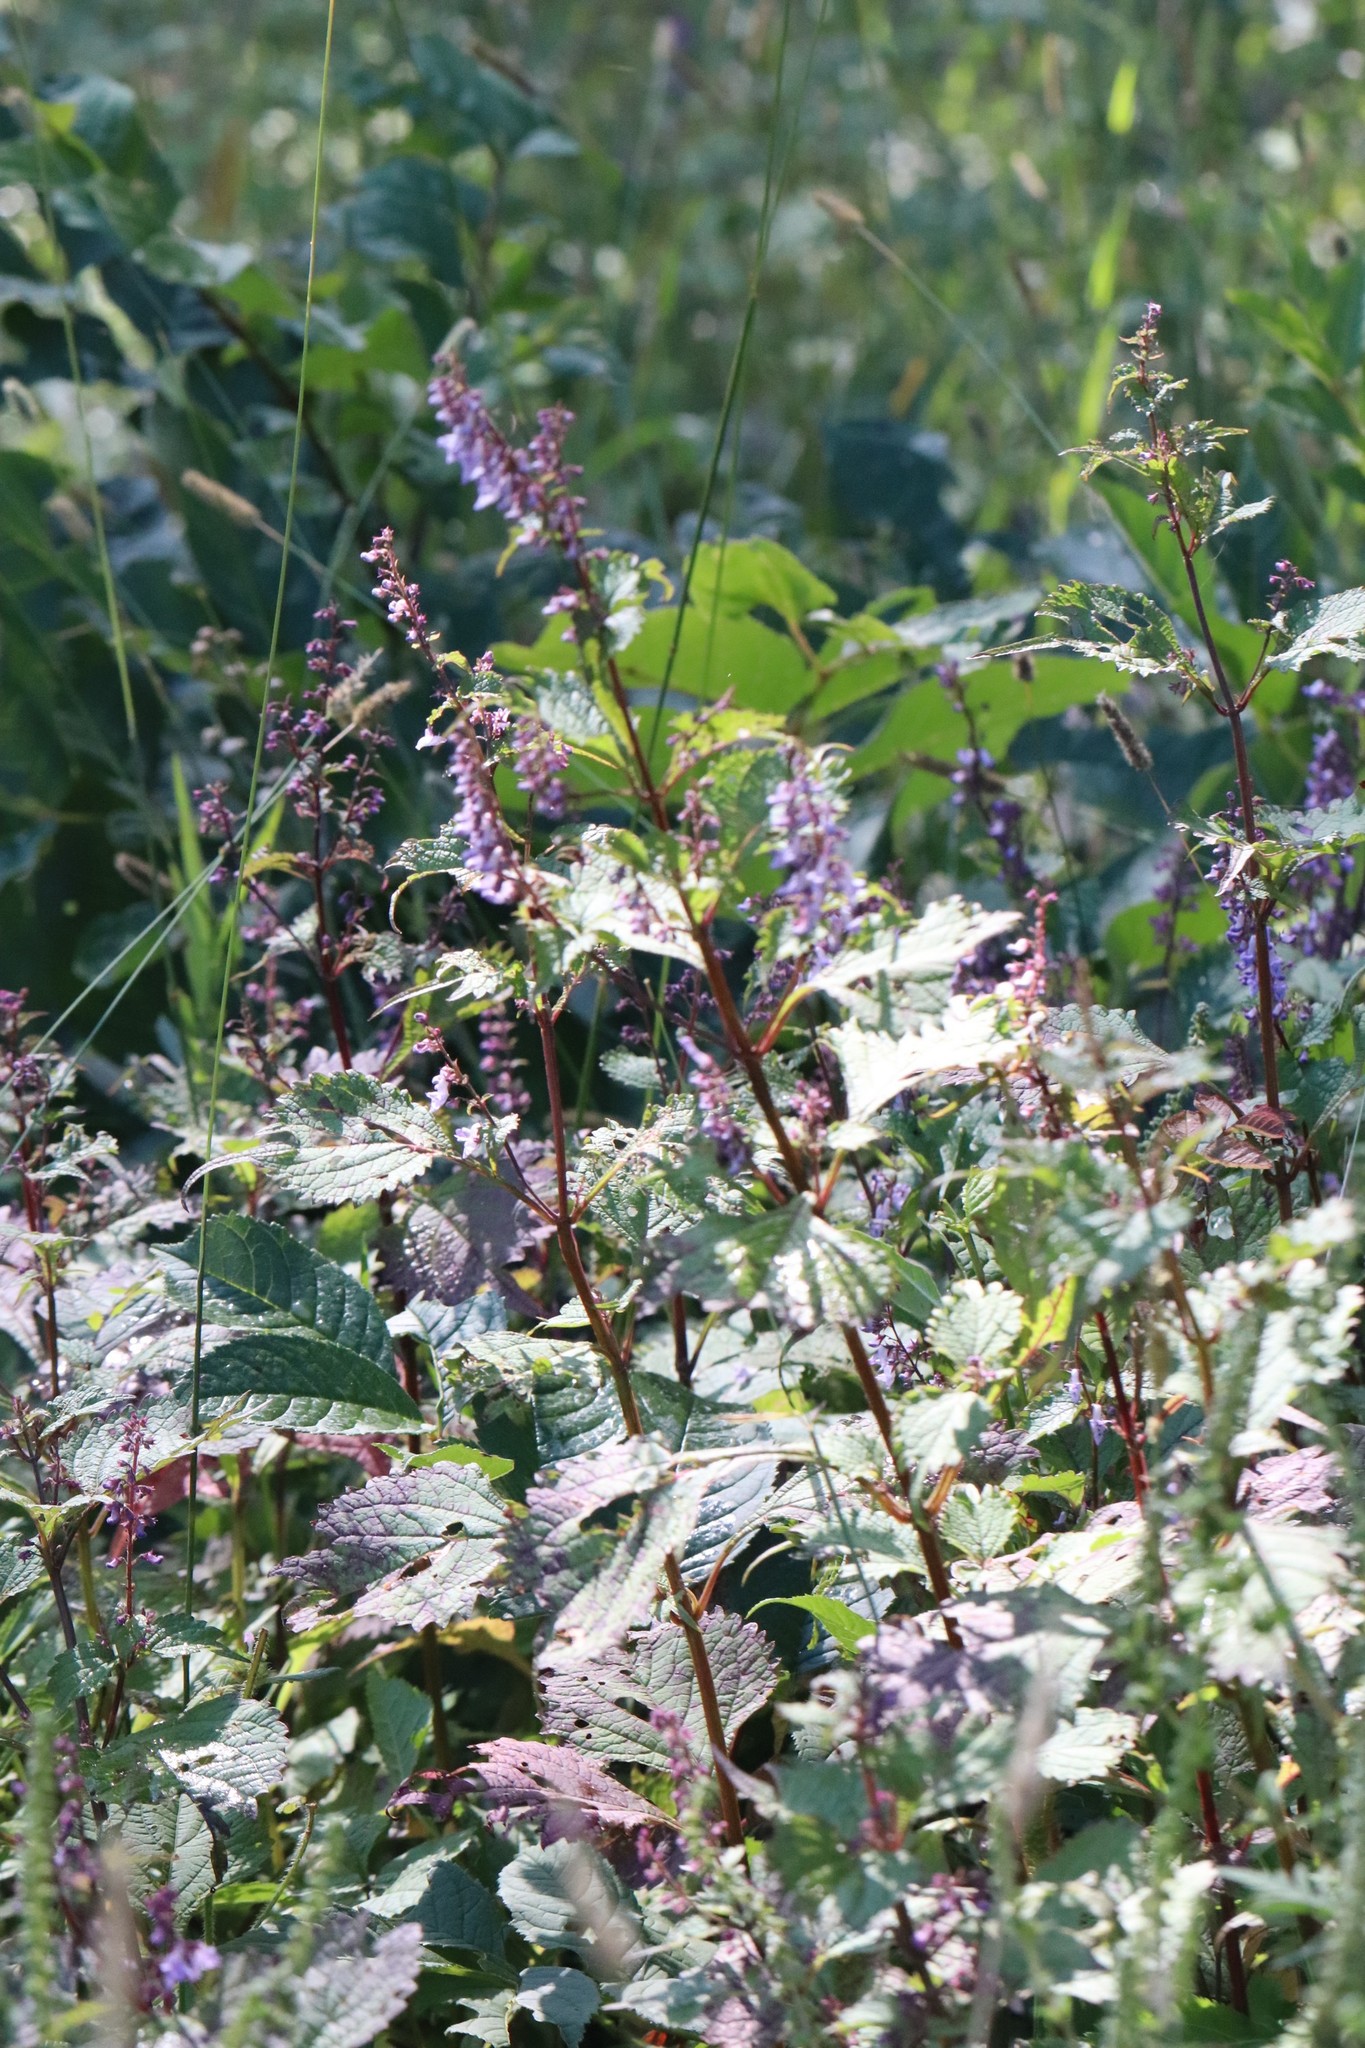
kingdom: Plantae
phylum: Tracheophyta
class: Magnoliopsida
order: Lamiales
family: Lamiaceae
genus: Isodon
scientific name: Isodon excisus
